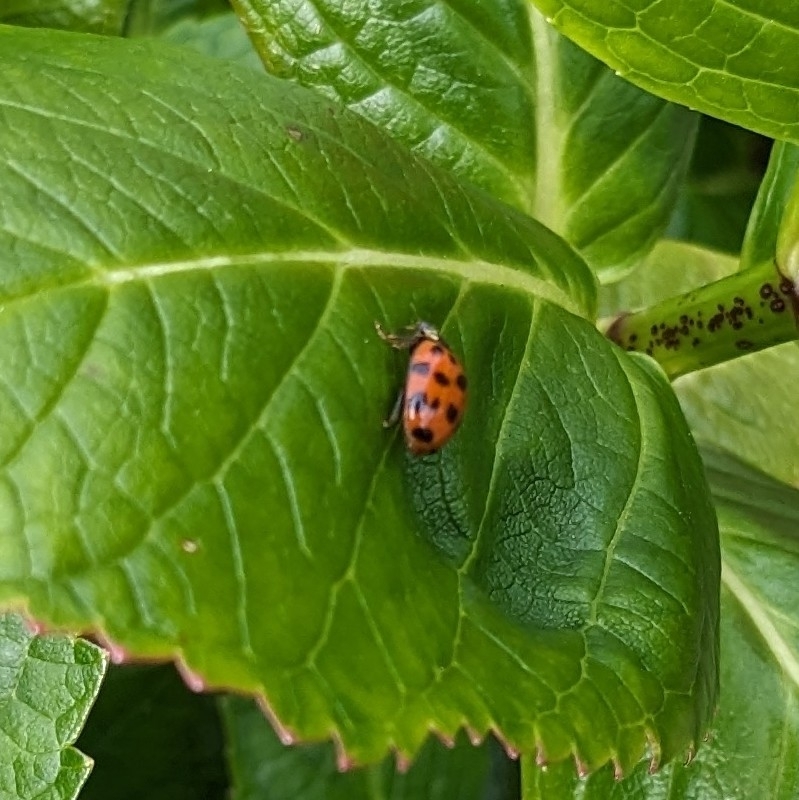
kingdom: Animalia
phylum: Arthropoda
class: Insecta
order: Coleoptera
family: Coccinellidae
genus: Harmonia
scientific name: Harmonia axyridis
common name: Harlequin ladybird
